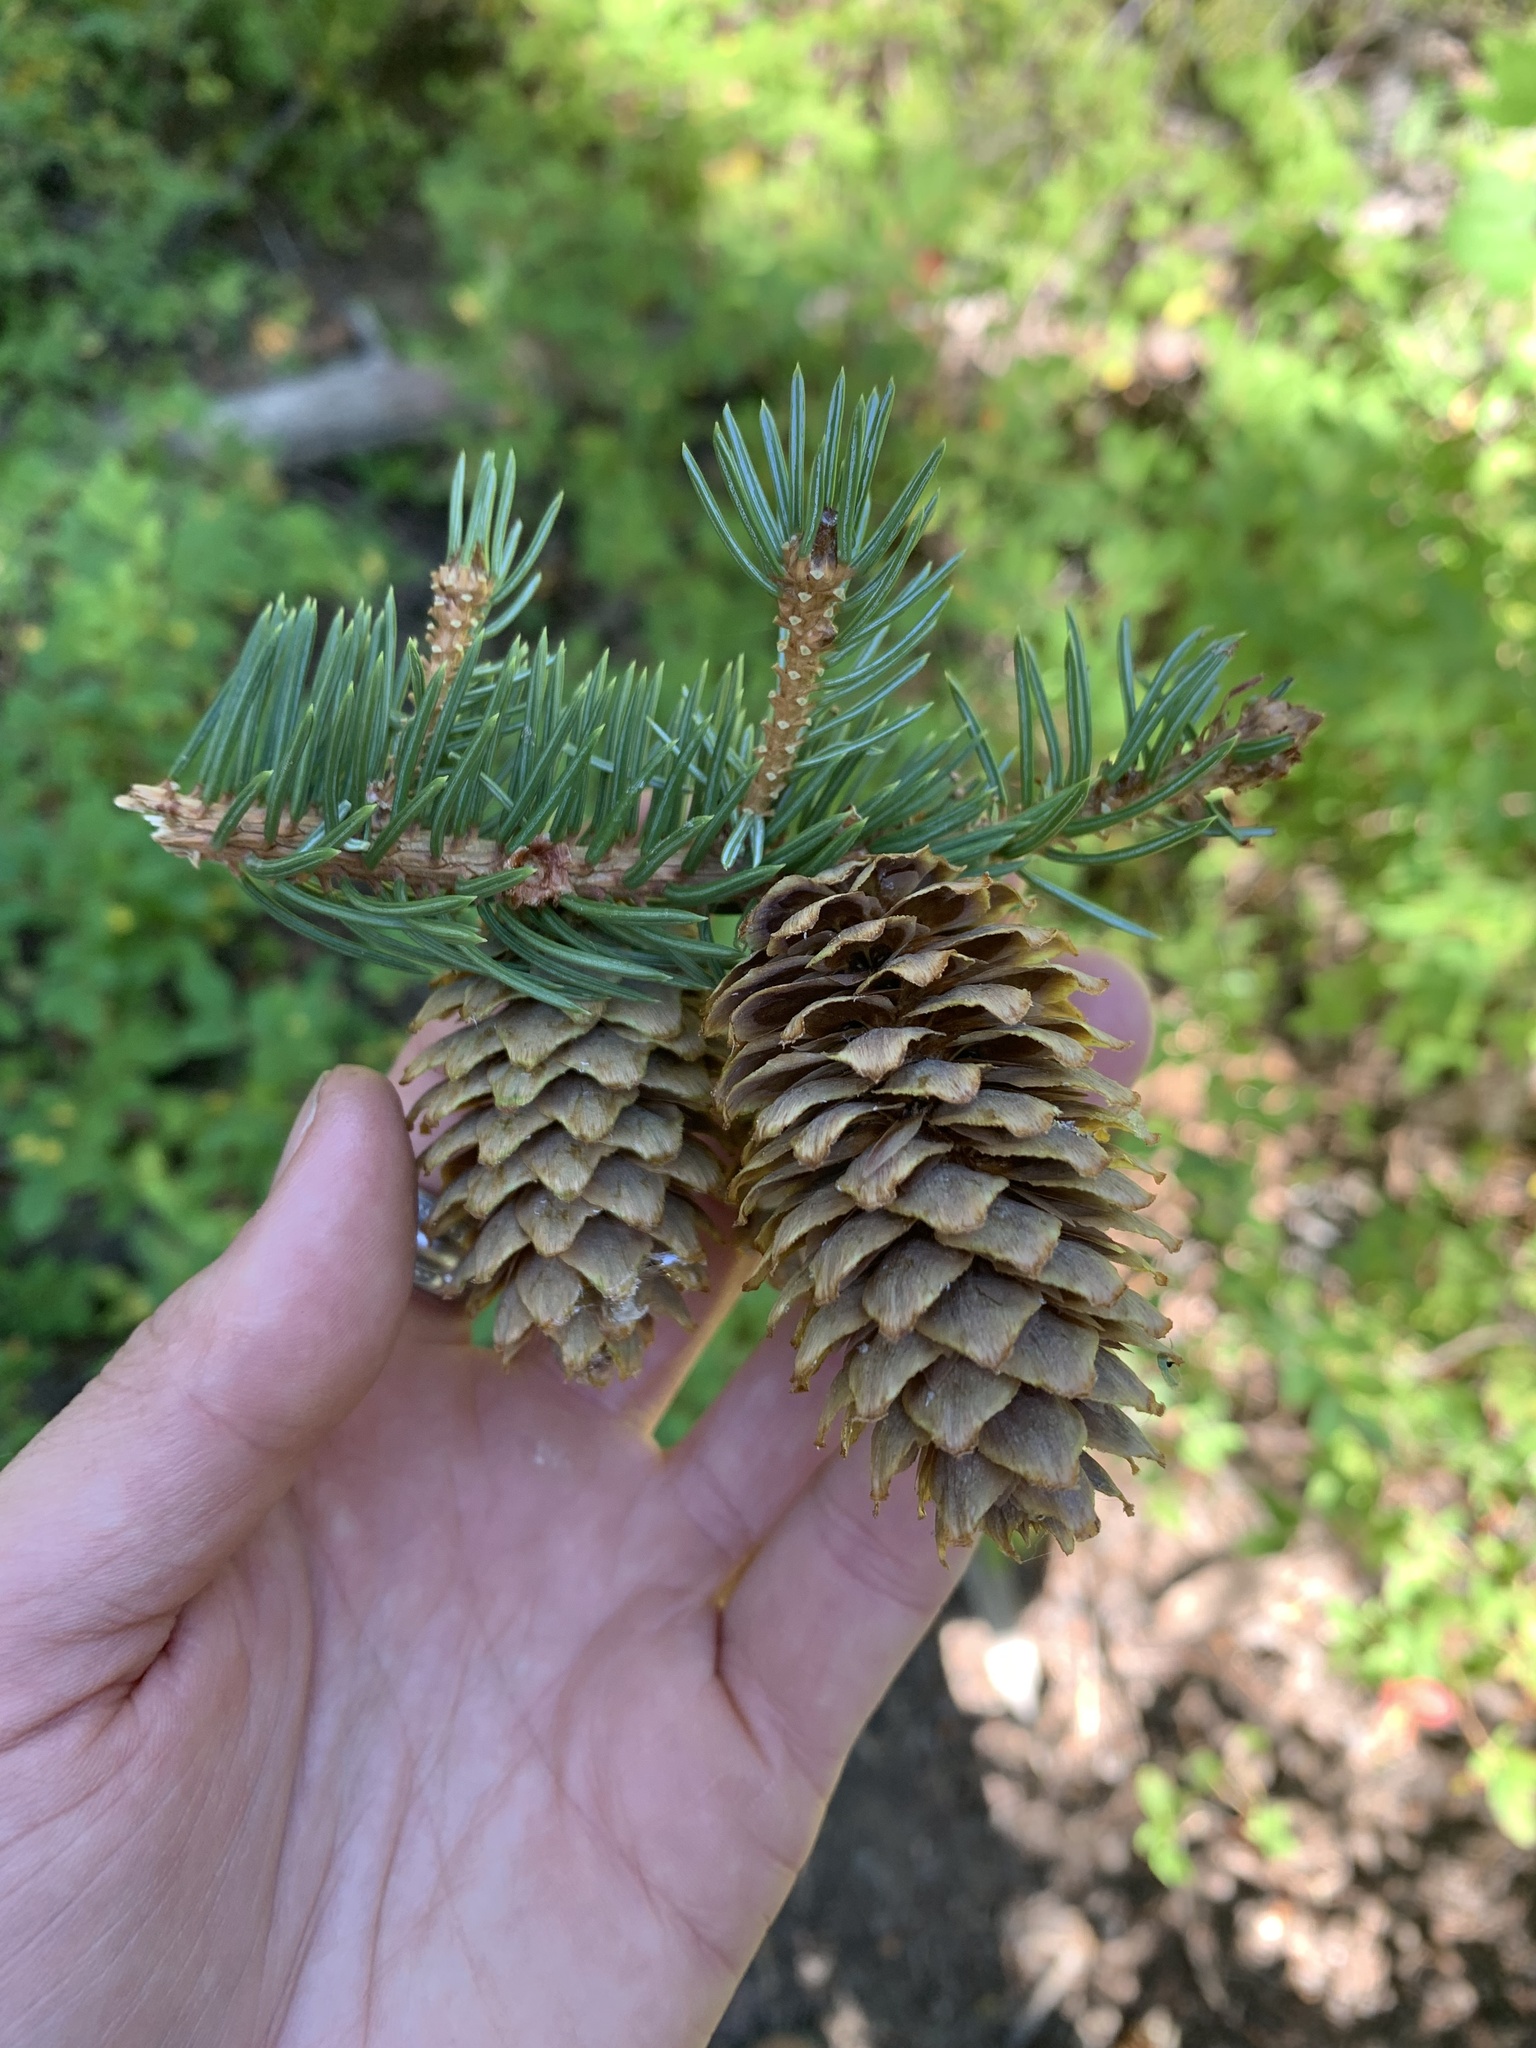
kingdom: Plantae
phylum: Tracheophyta
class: Pinopsida
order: Pinales
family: Pinaceae
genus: Picea
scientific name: Picea engelmannii
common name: Engelmann spruce
